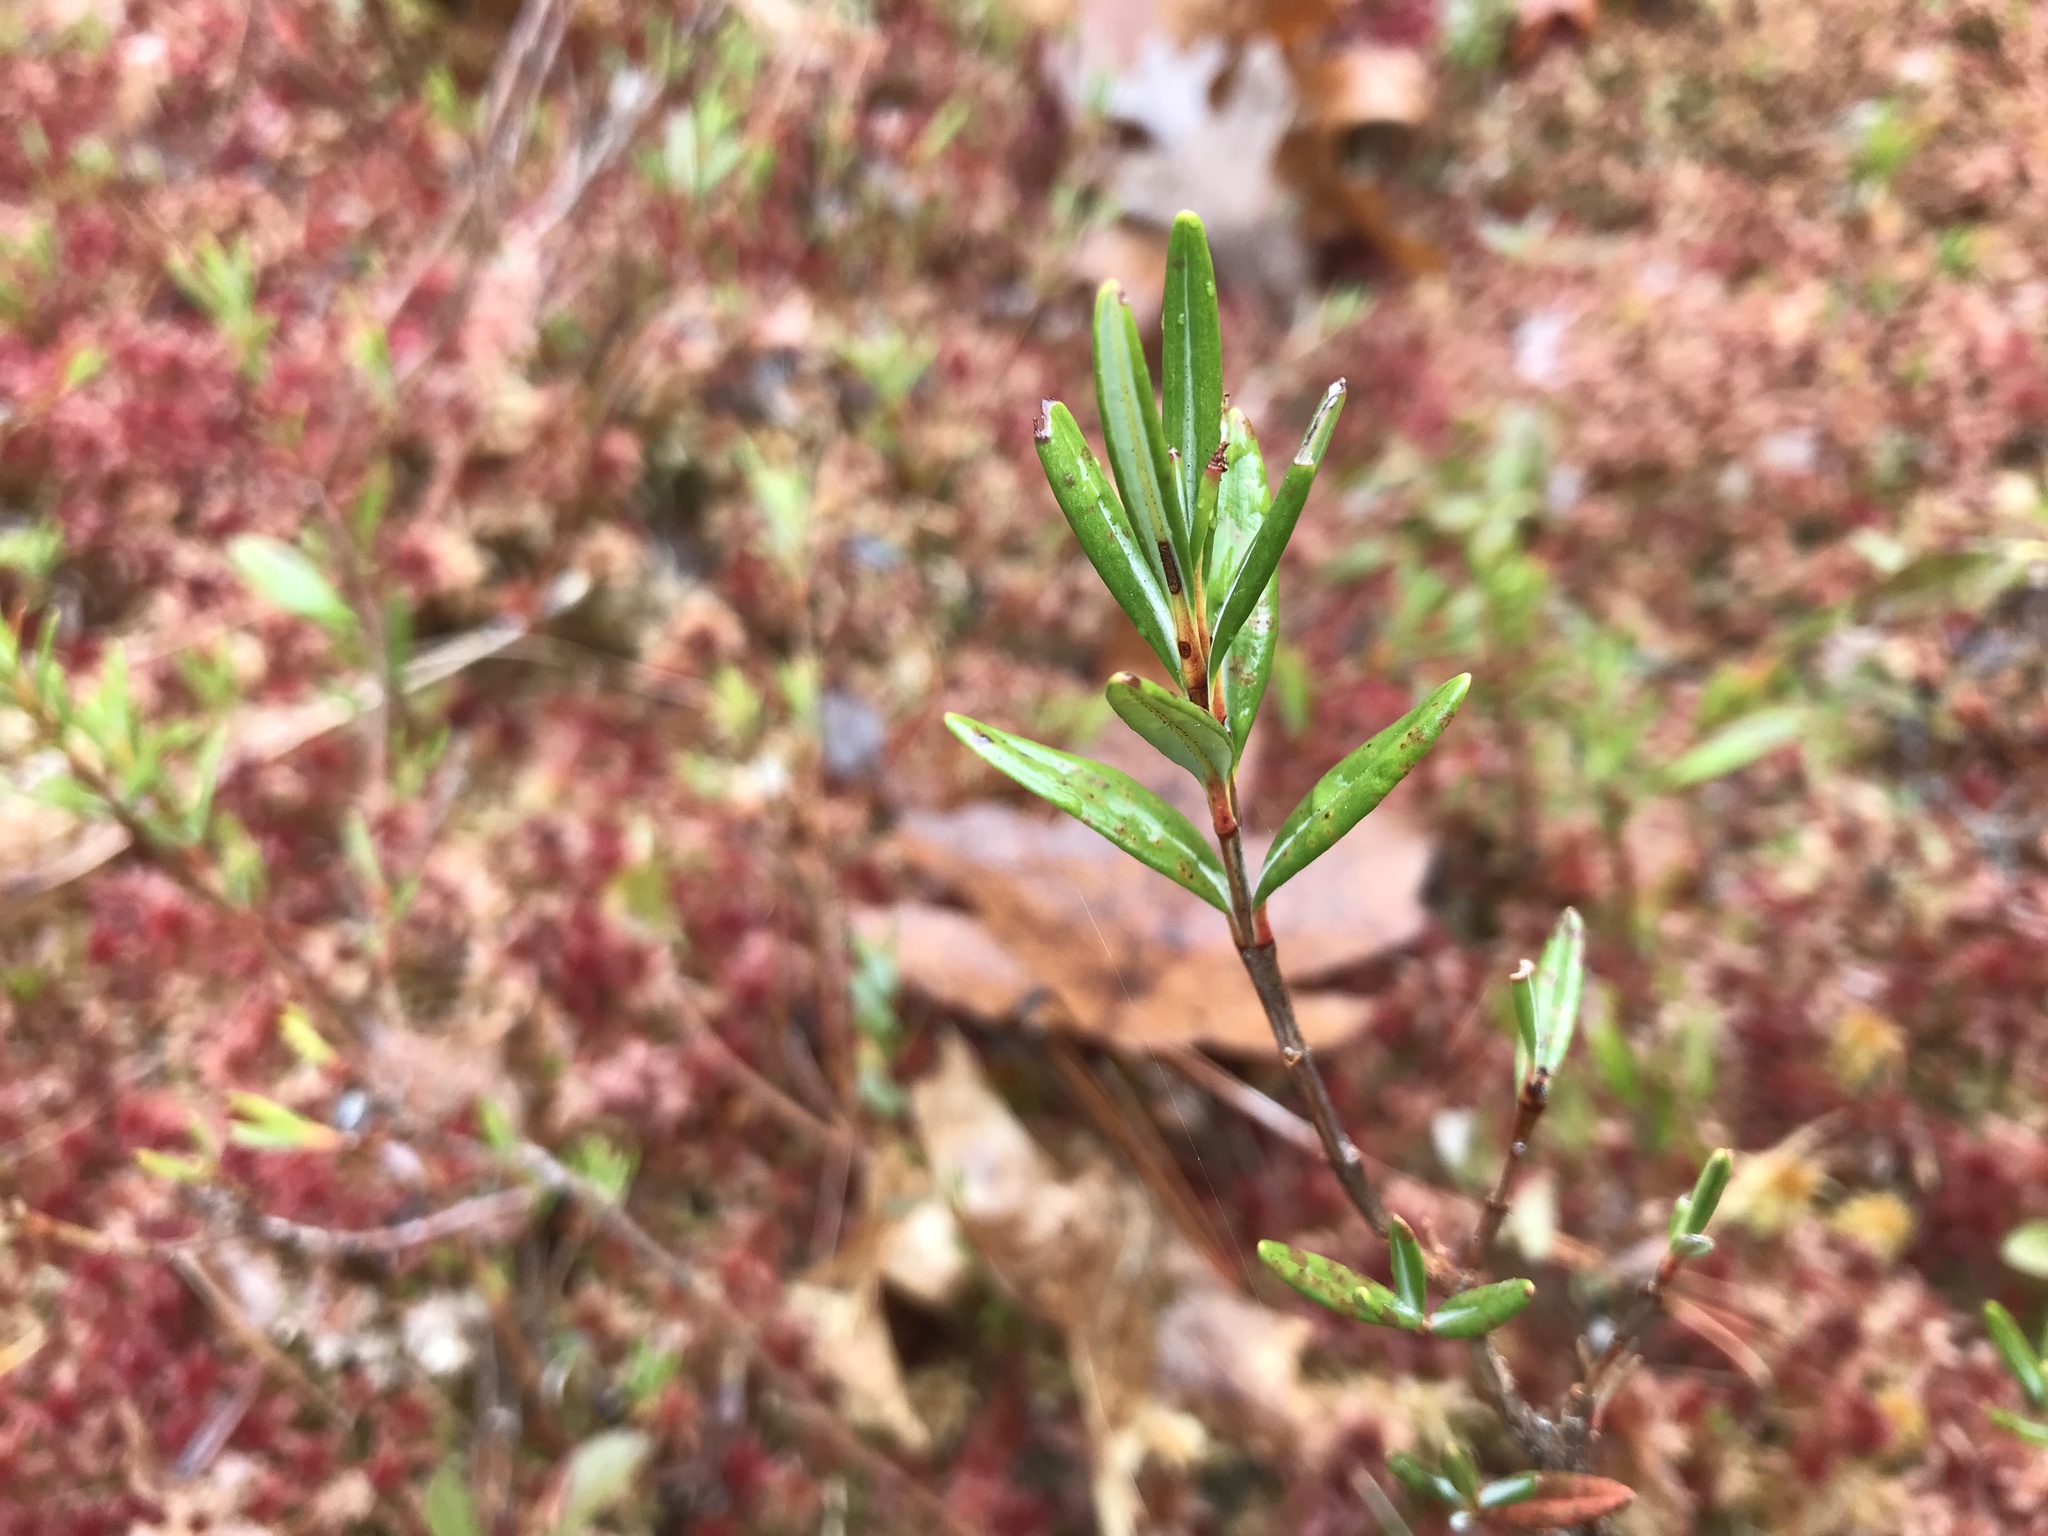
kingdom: Plantae
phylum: Tracheophyta
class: Magnoliopsida
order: Ericales
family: Ericaceae
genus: Kalmia
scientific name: Kalmia polifolia
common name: Bog-laurel
